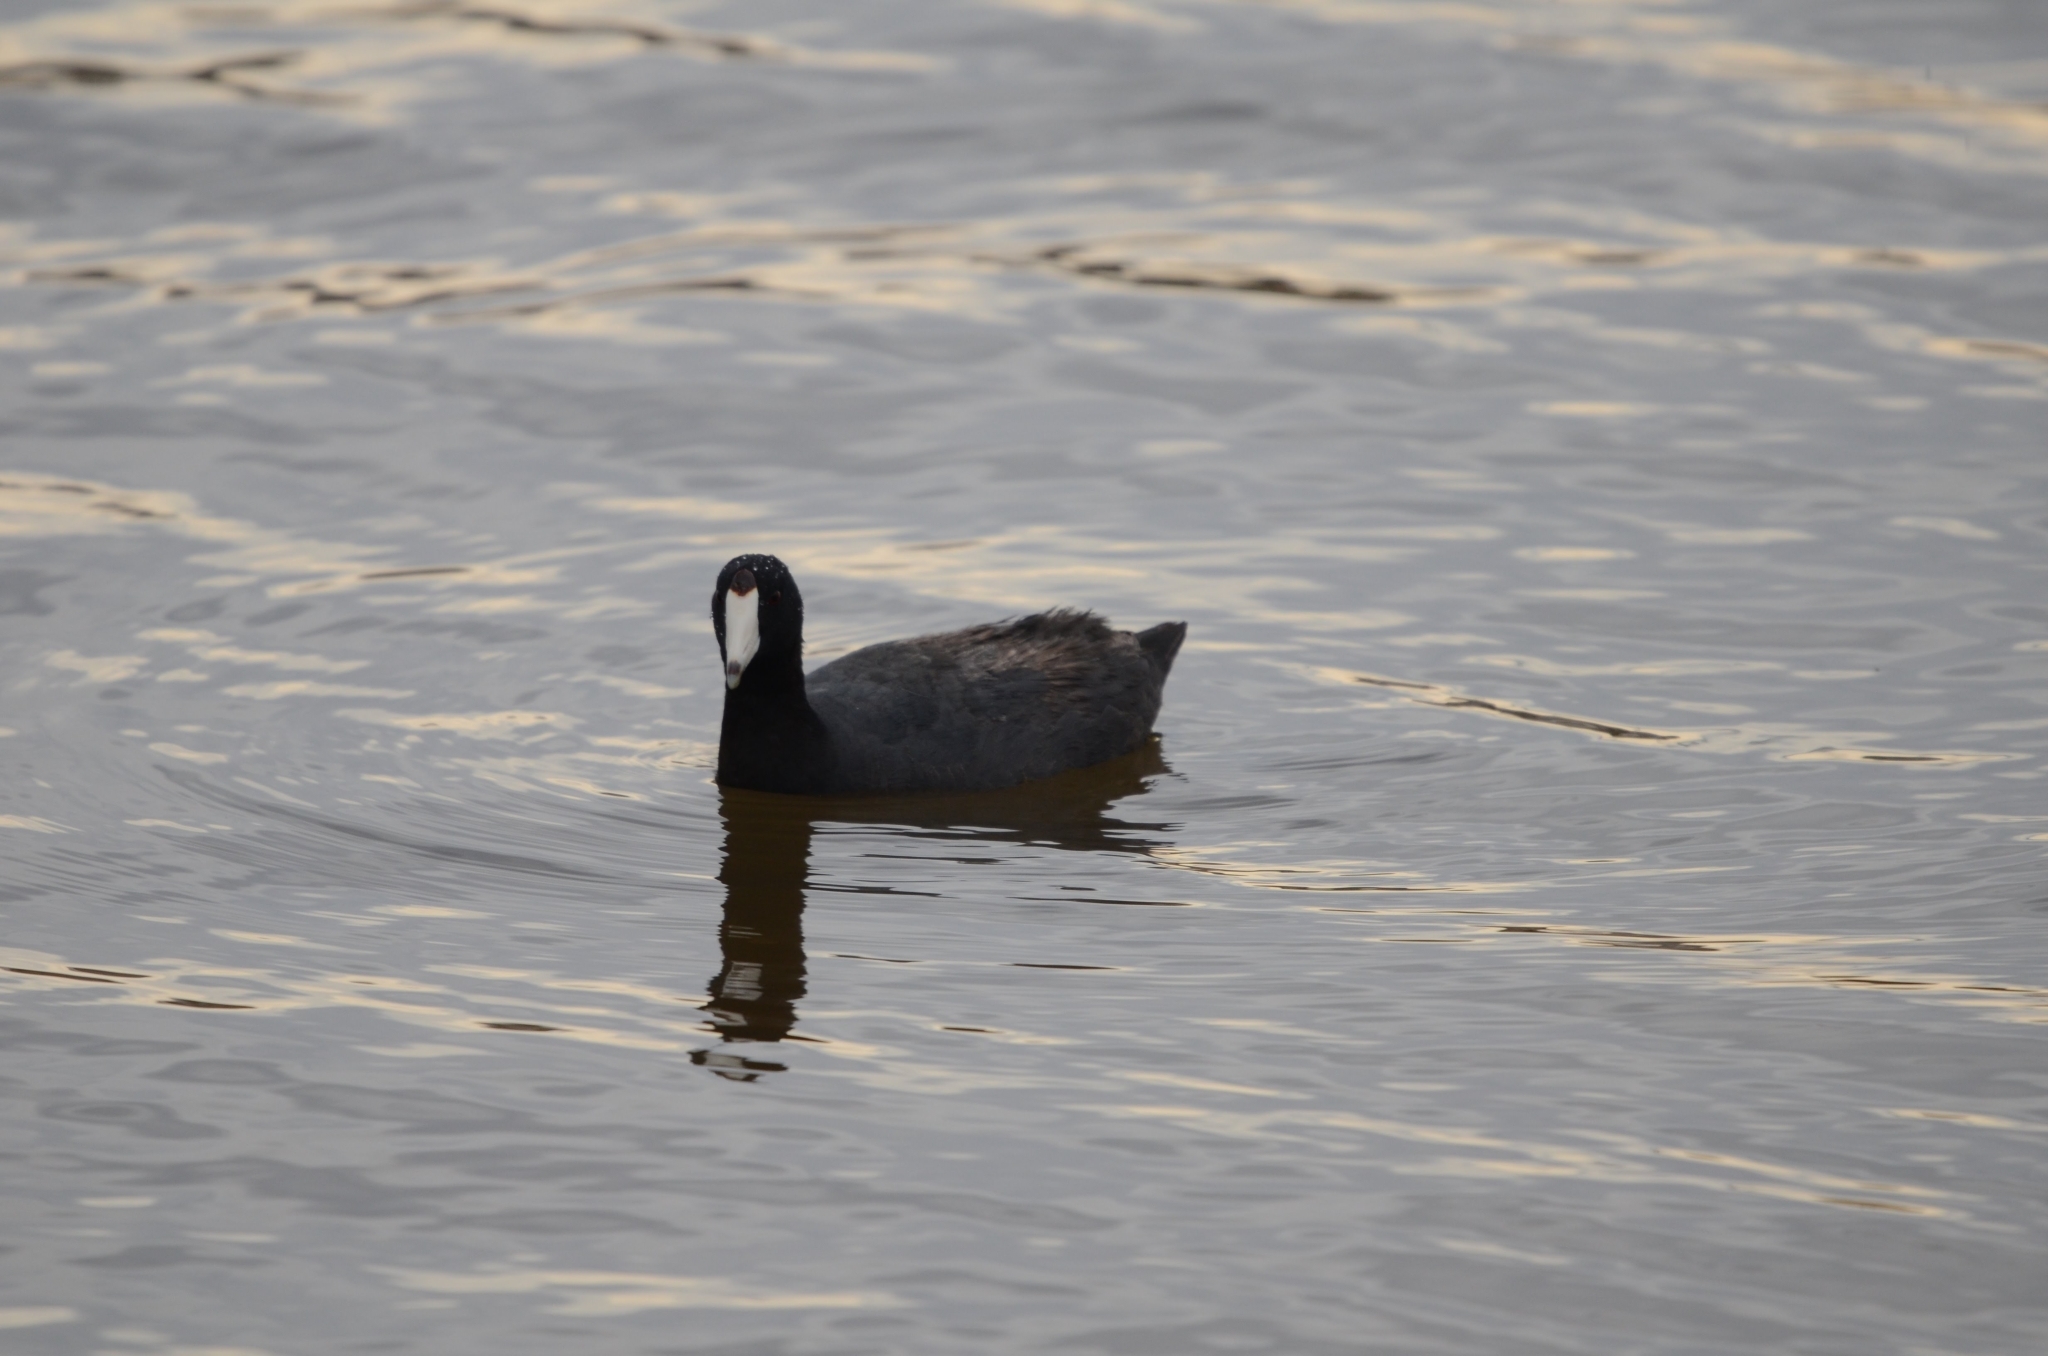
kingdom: Animalia
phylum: Chordata
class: Aves
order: Gruiformes
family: Rallidae
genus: Fulica
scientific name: Fulica americana
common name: American coot
